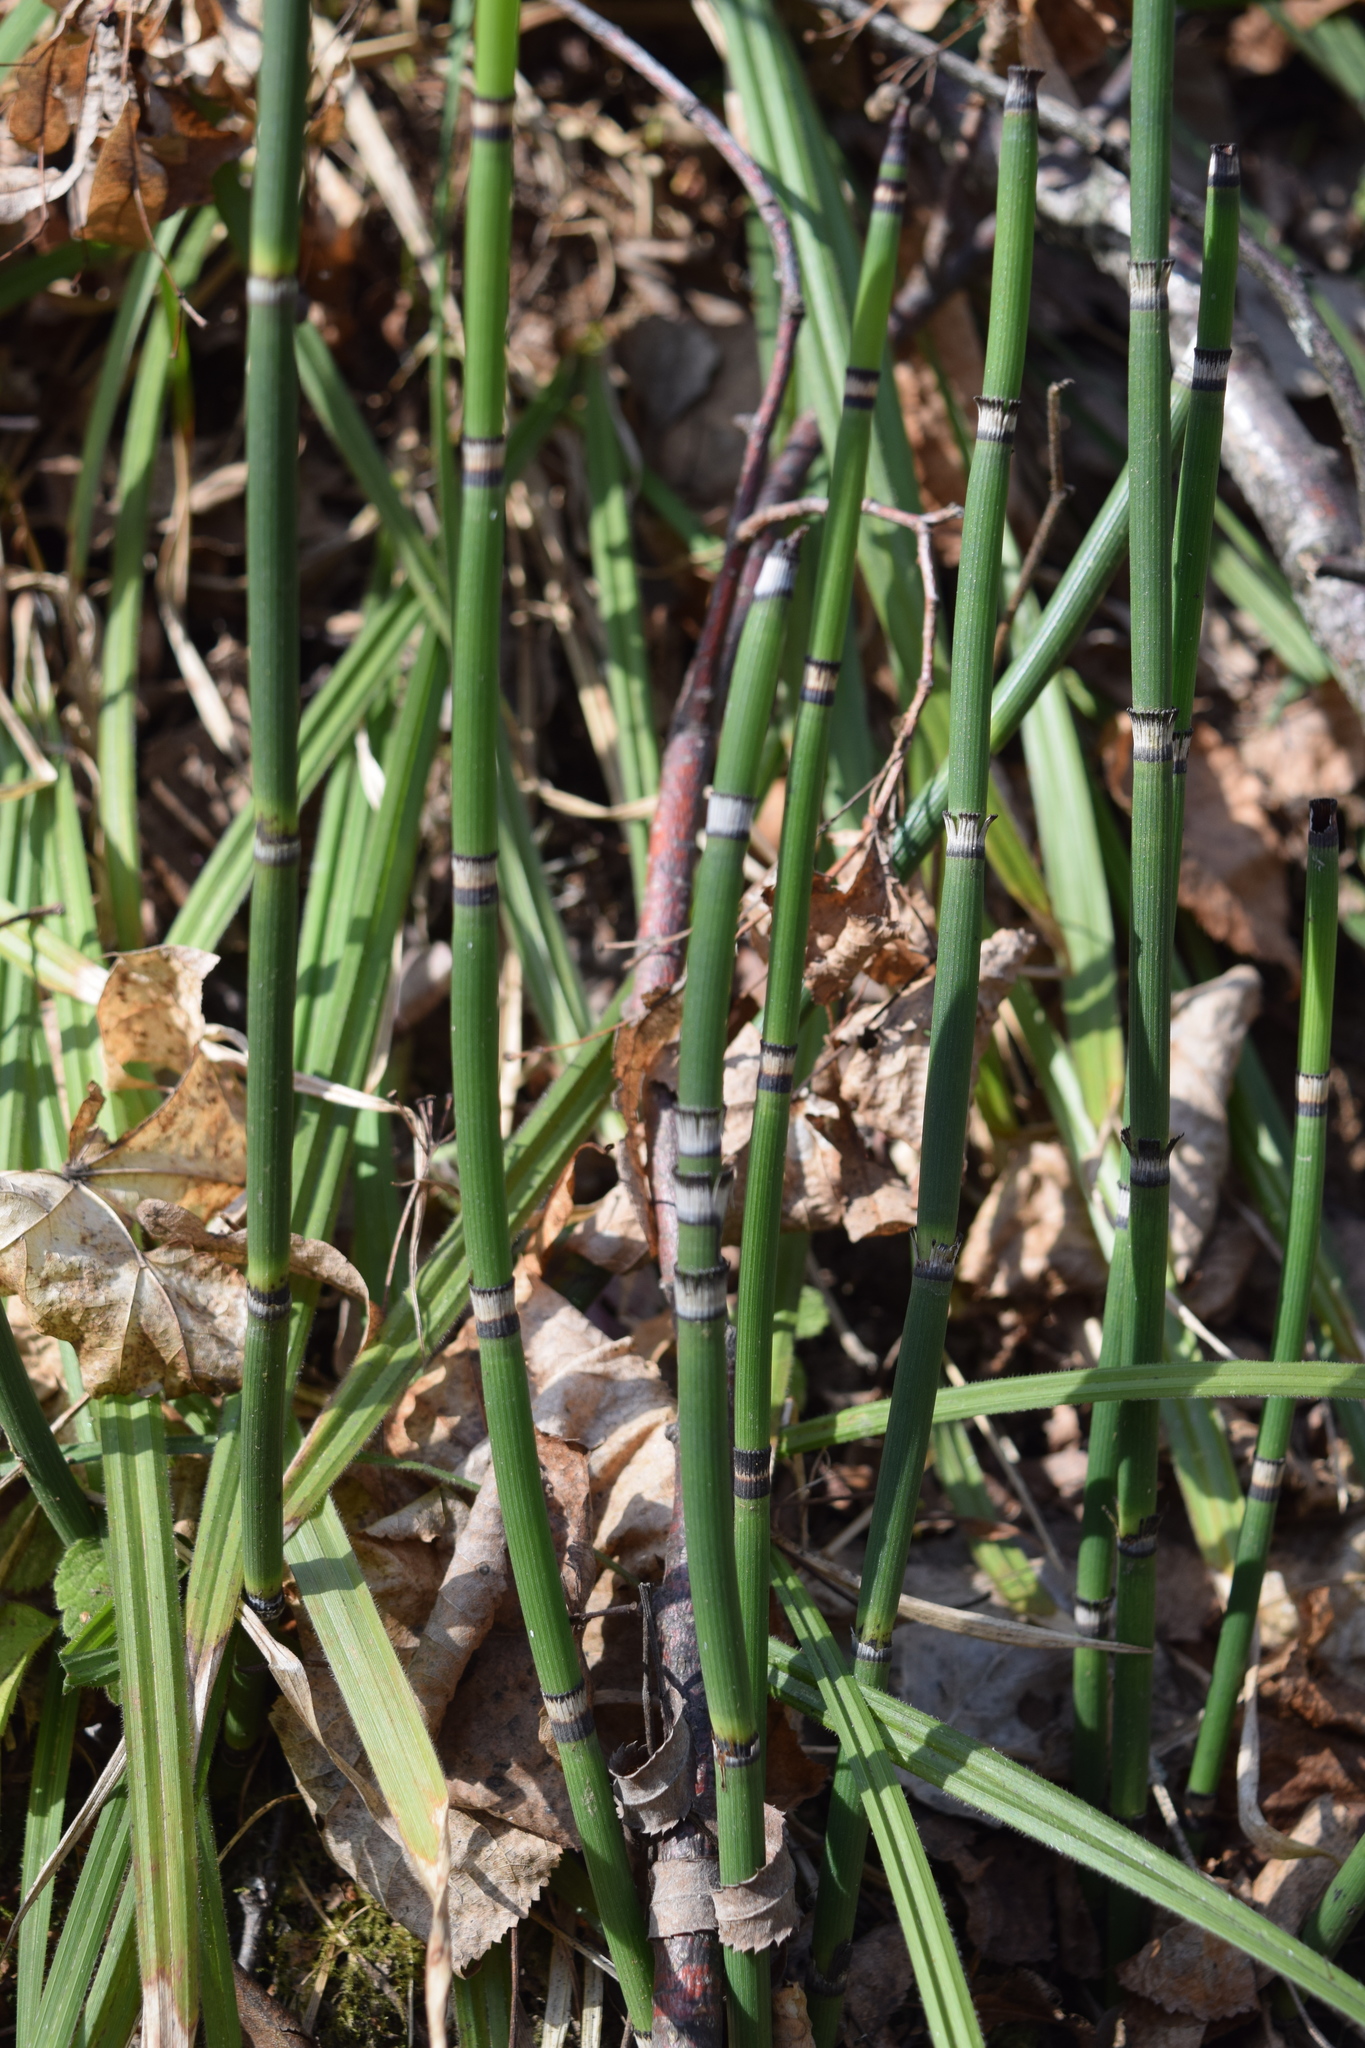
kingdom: Plantae
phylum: Tracheophyta
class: Polypodiopsida
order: Equisetales
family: Equisetaceae
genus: Equisetum
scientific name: Equisetum hyemale
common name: Rough horsetail
